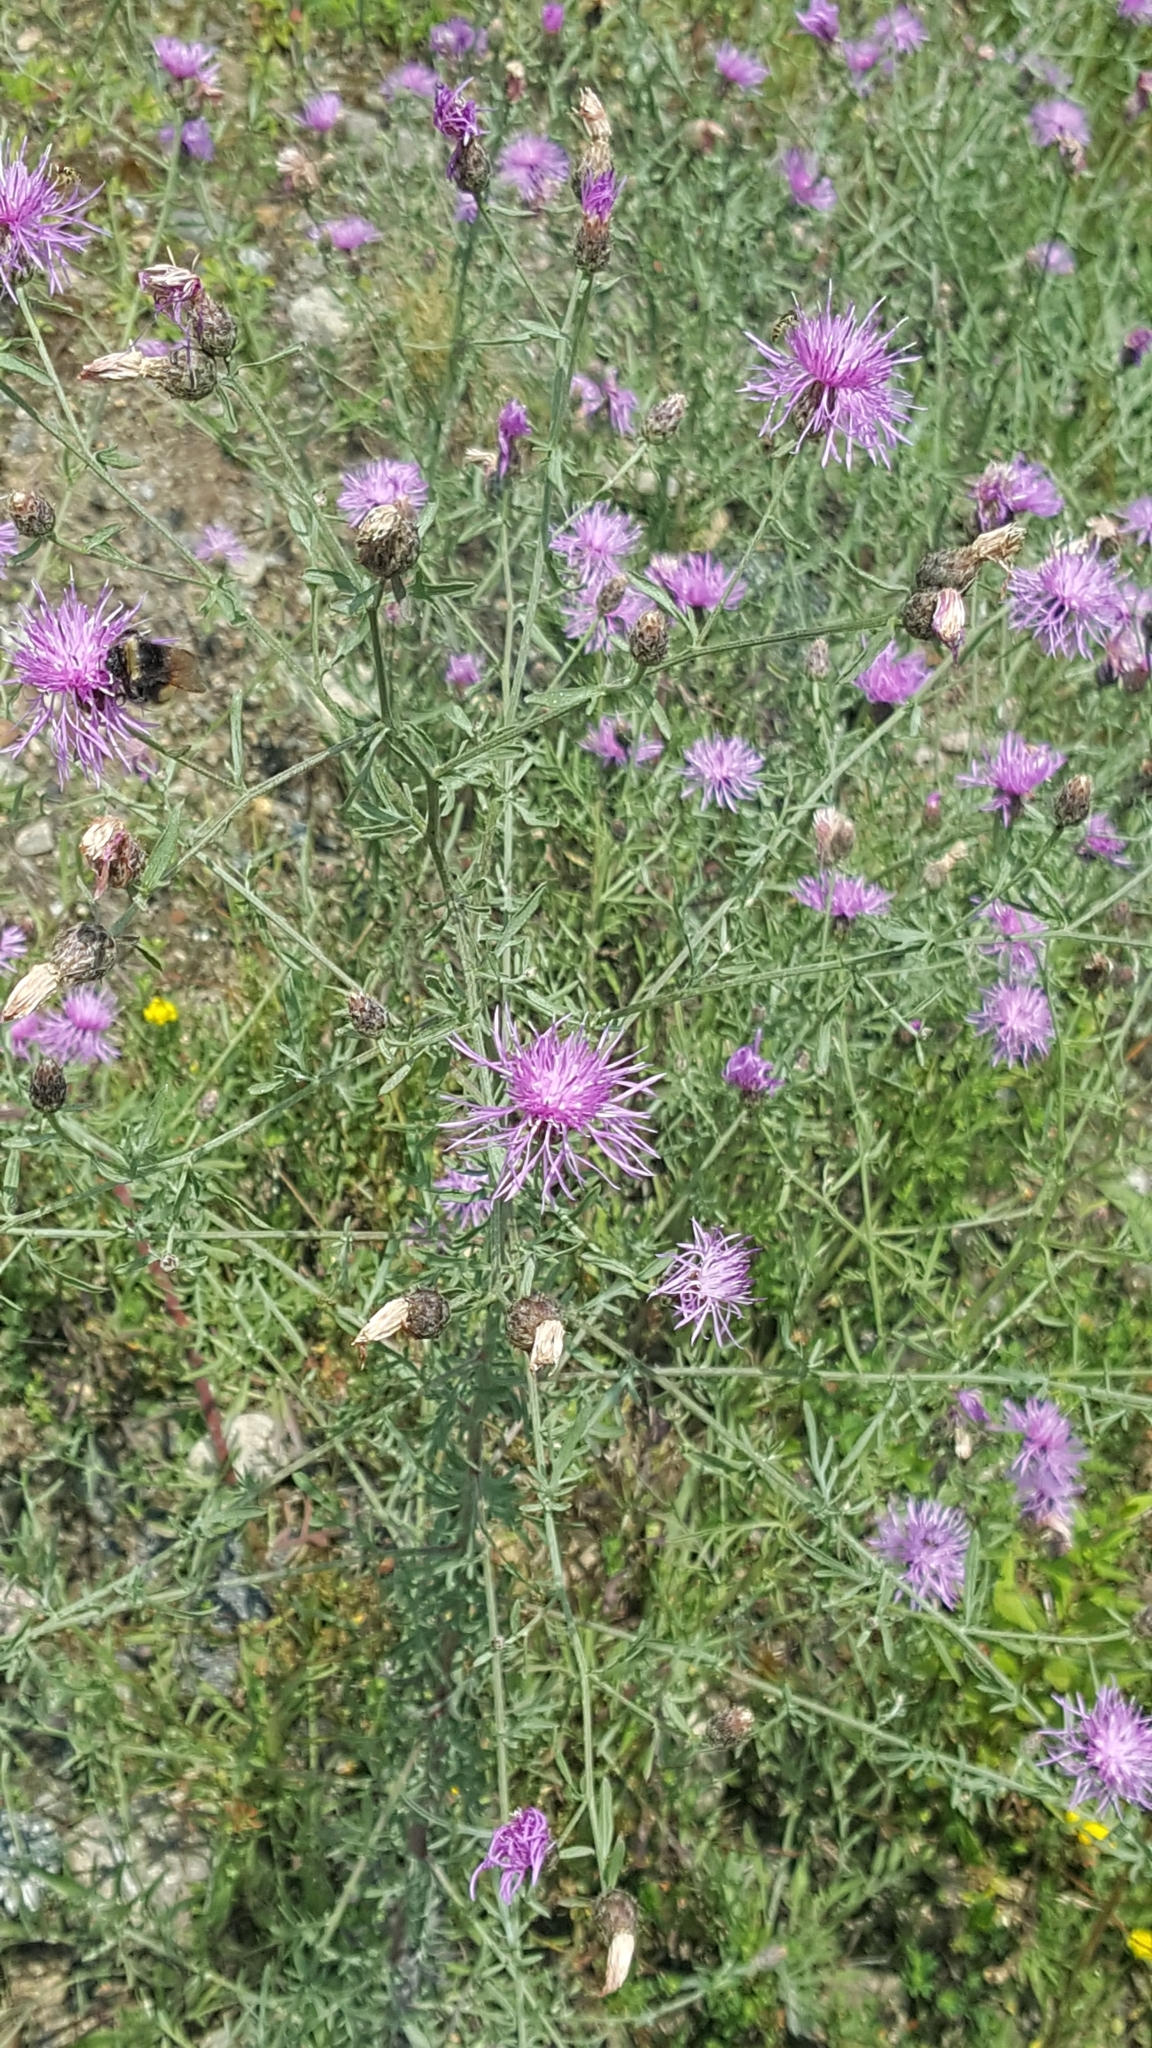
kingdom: Plantae
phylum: Tracheophyta
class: Magnoliopsida
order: Asterales
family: Asteraceae
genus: Centaurea
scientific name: Centaurea stoebe
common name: Spotted knapweed
